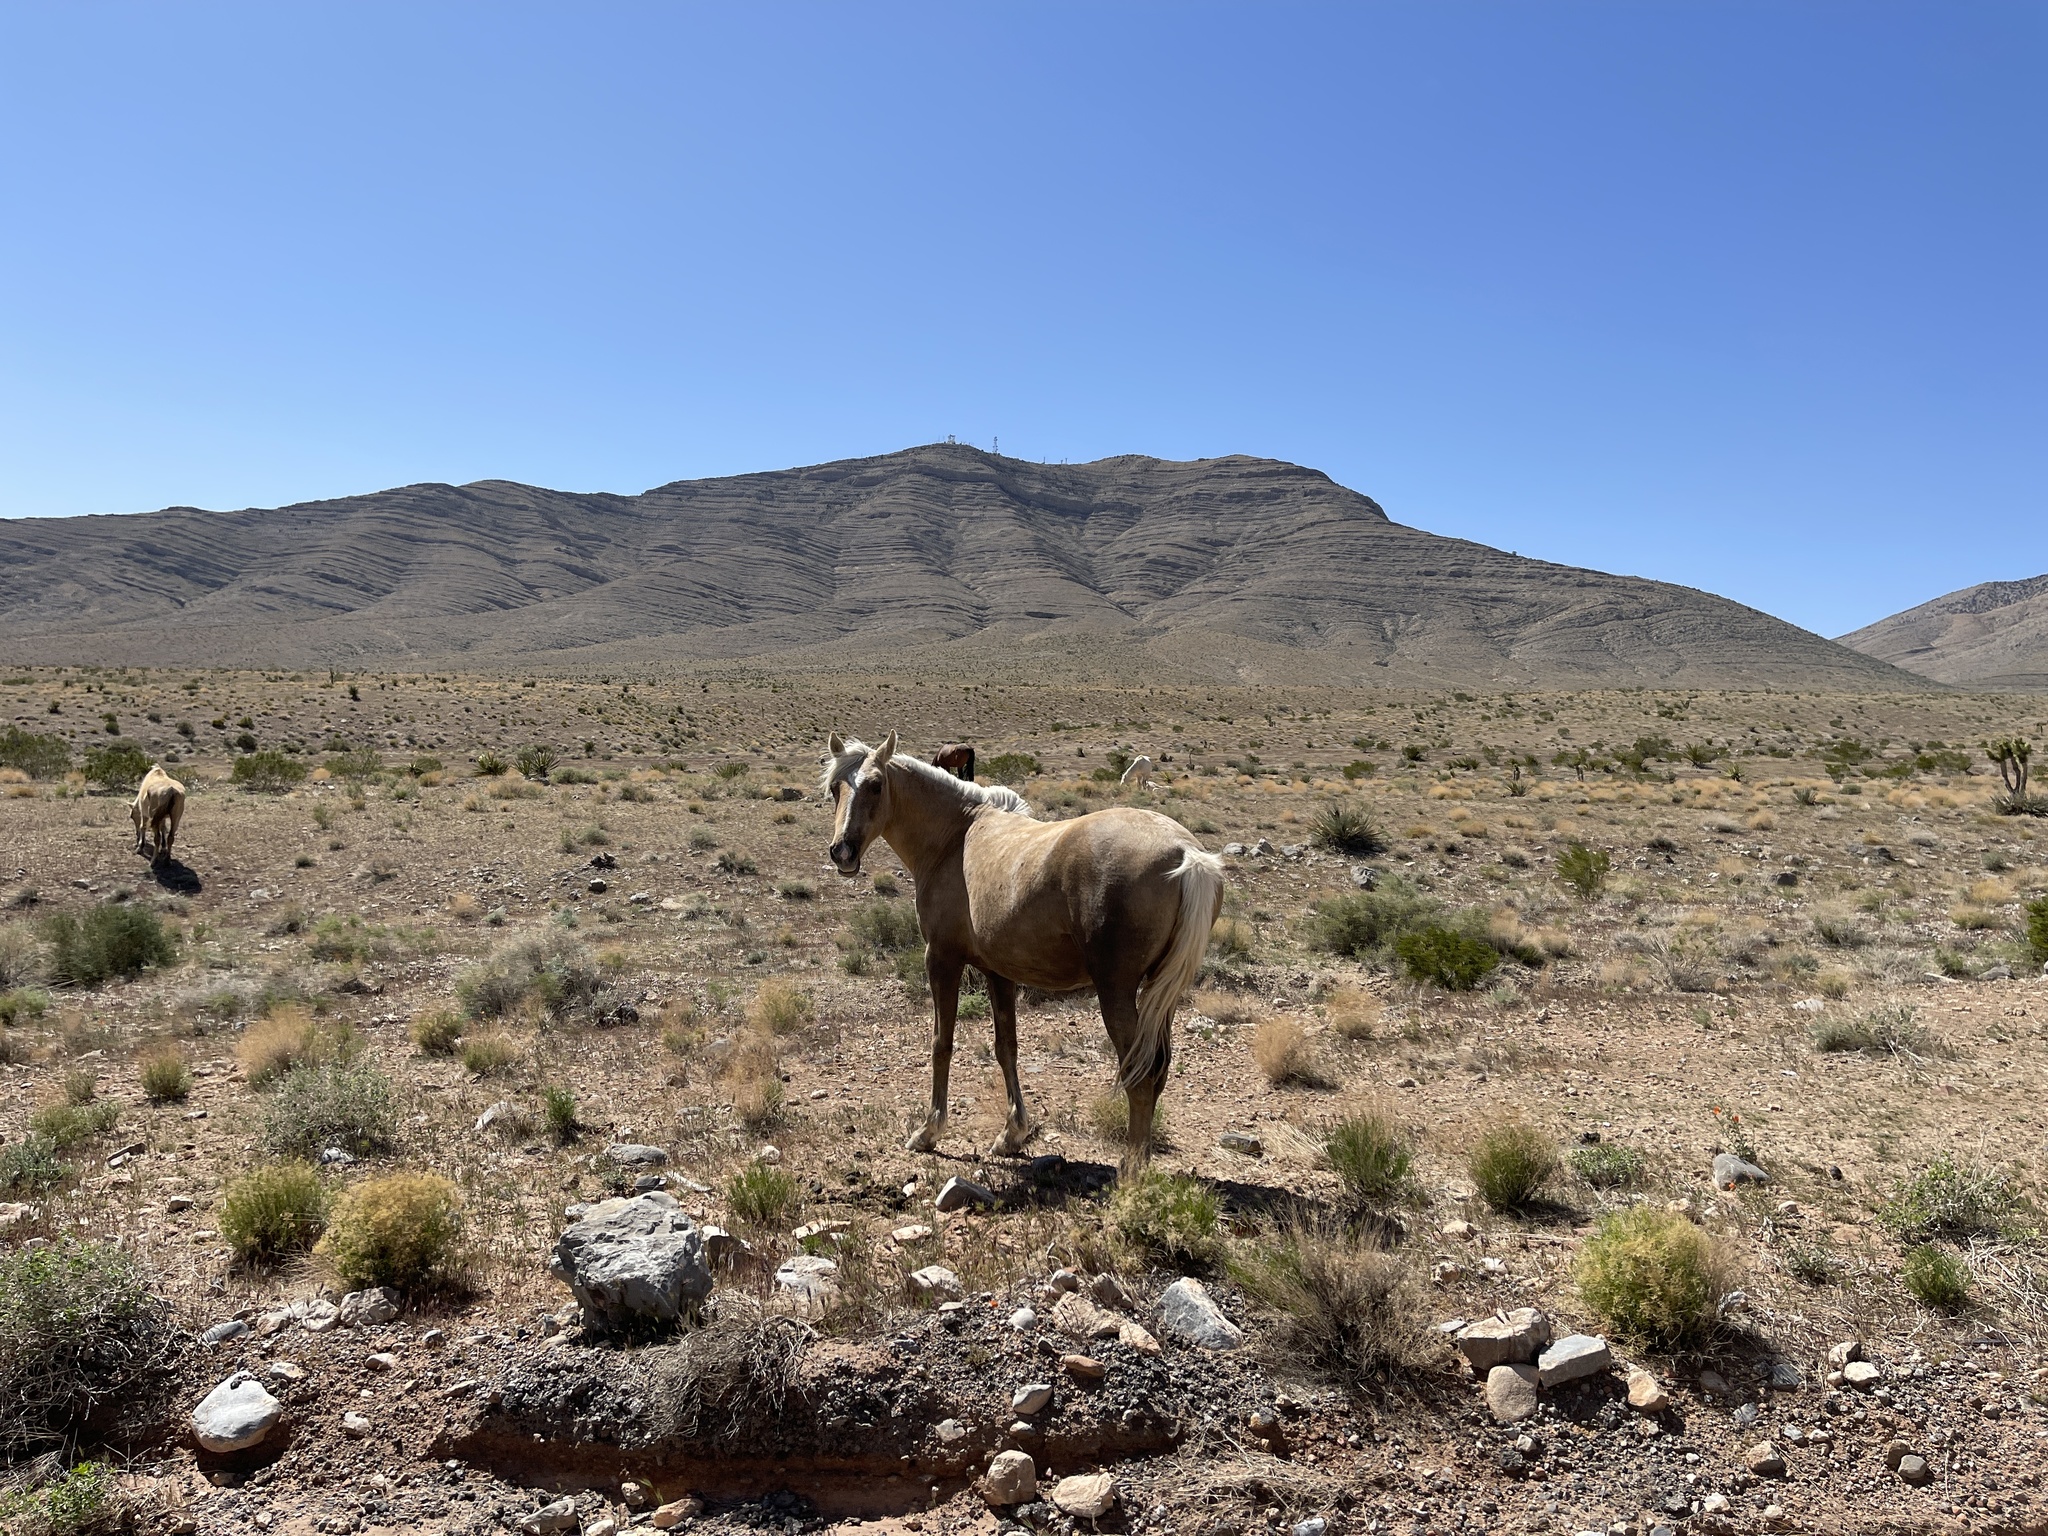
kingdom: Animalia
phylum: Chordata
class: Mammalia
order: Perissodactyla
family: Equidae
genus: Equus
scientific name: Equus caballus
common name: Horse
